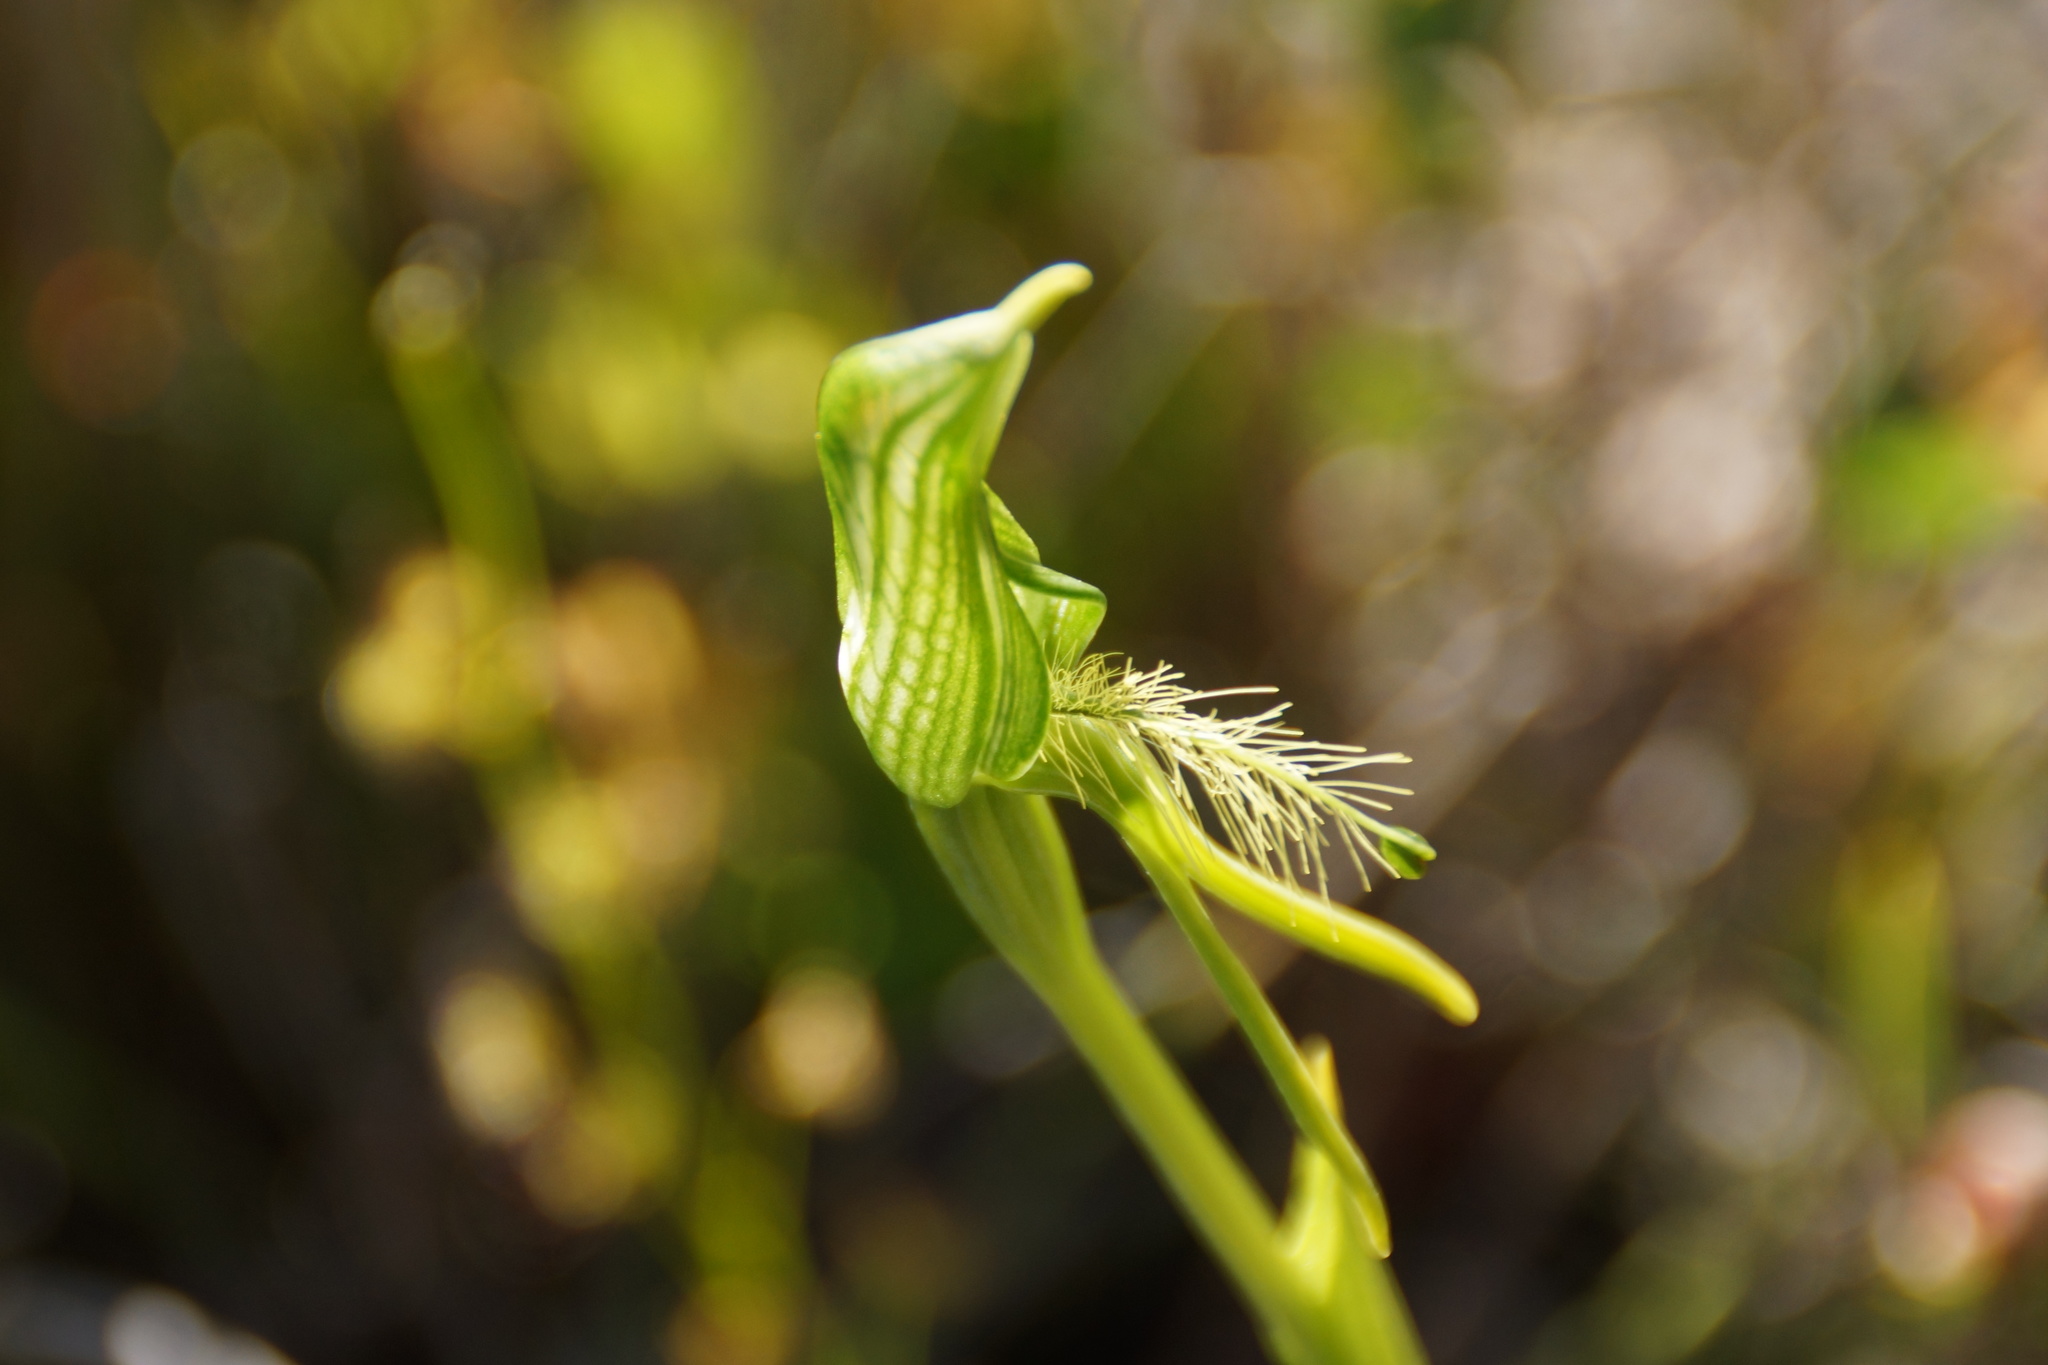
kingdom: Plantae
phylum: Tracheophyta
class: Liliopsida
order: Asparagales
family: Orchidaceae
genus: Pterostylis
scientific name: Pterostylis unicornis
